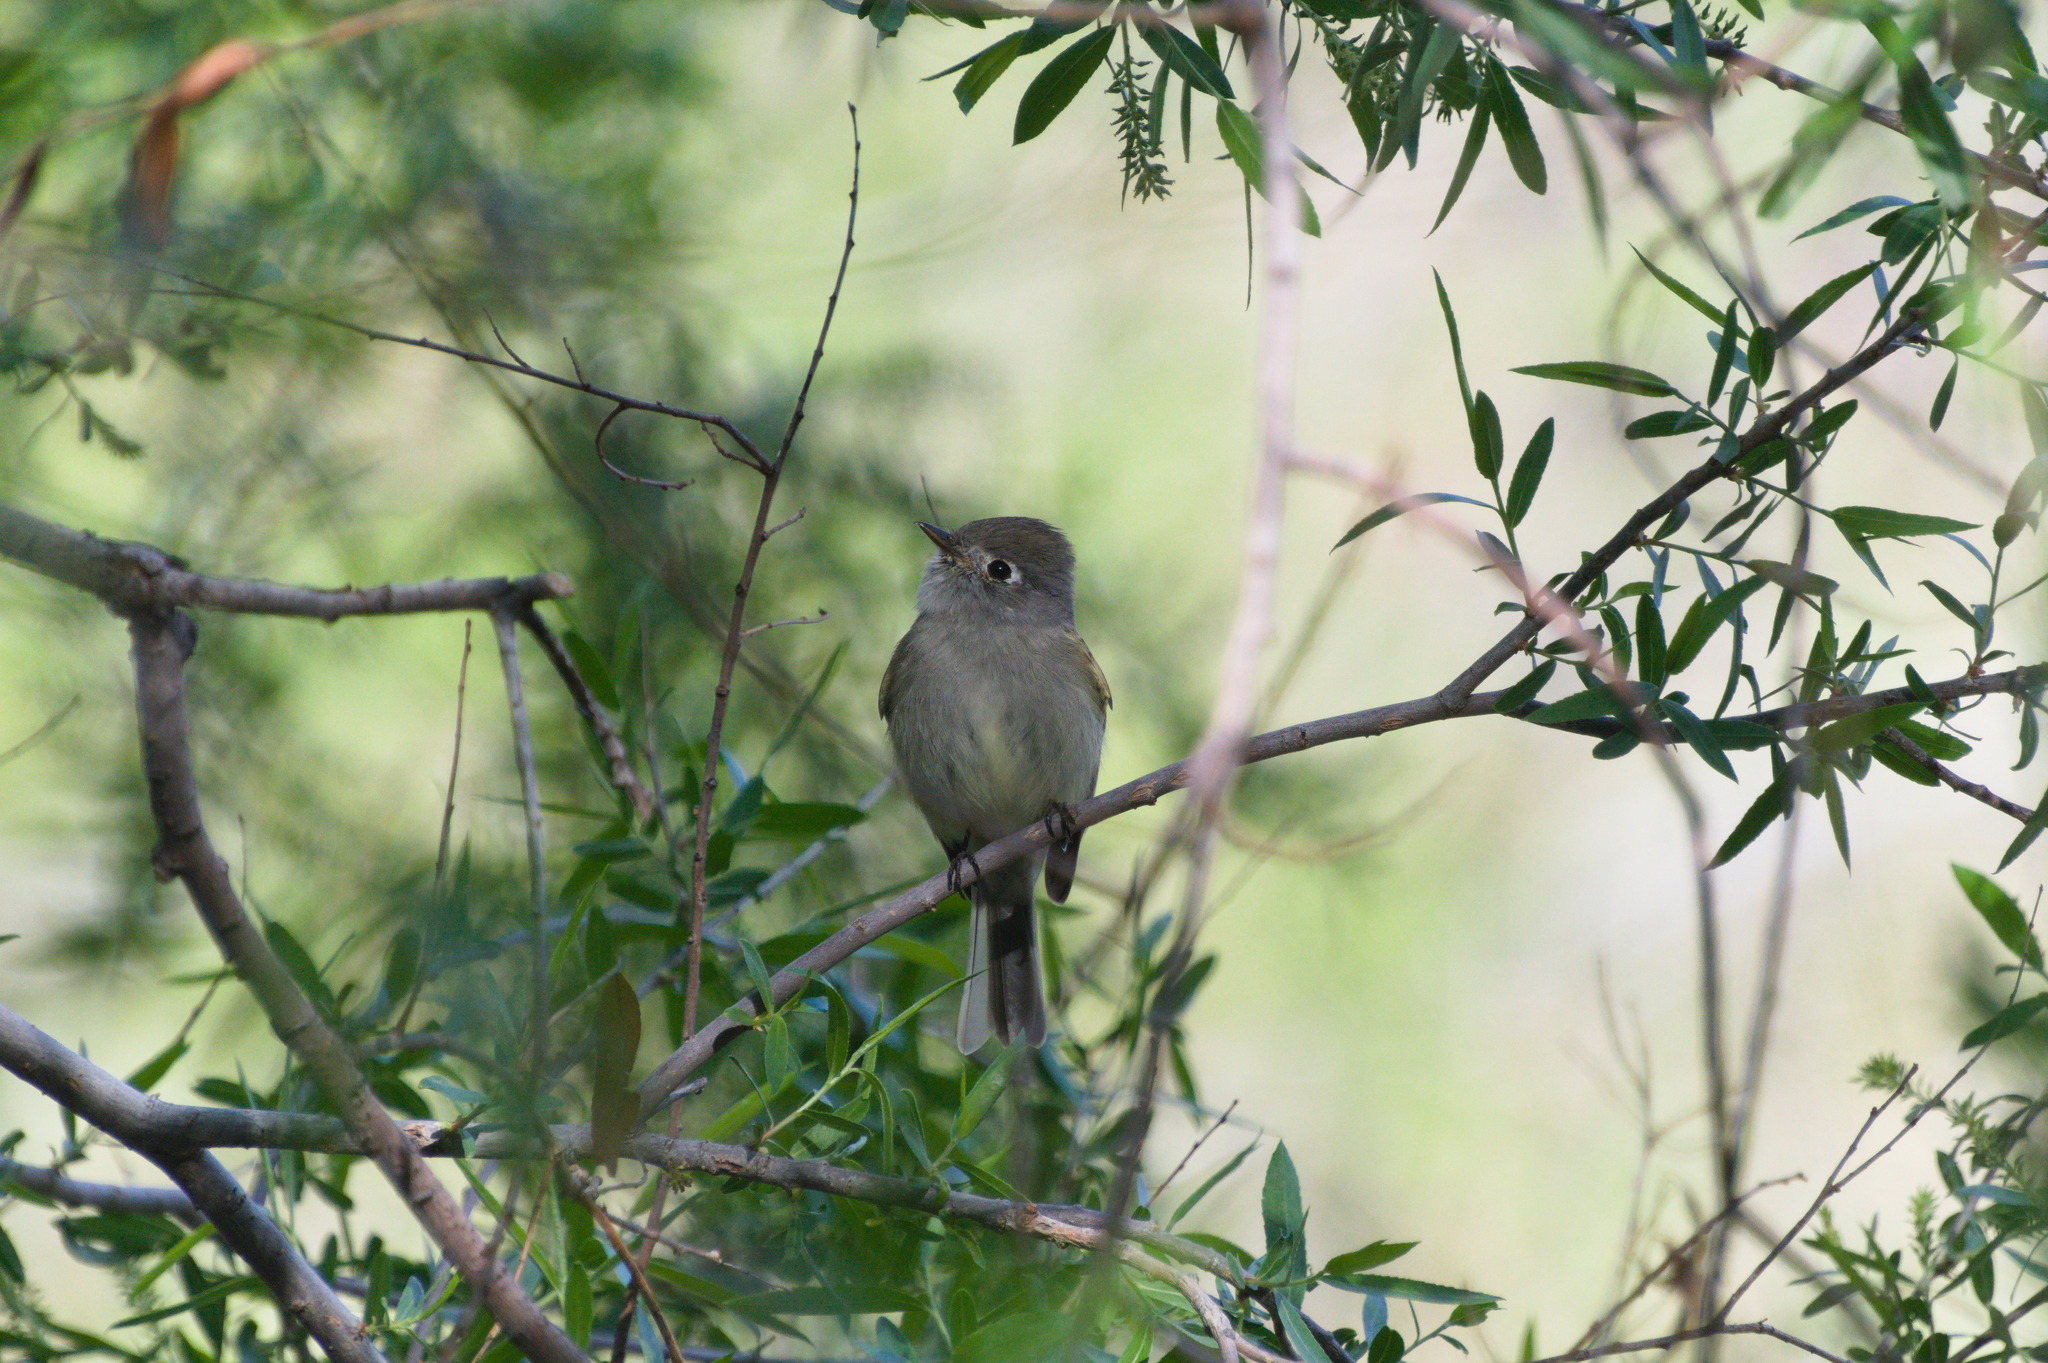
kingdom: Animalia
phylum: Chordata
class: Aves
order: Passeriformes
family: Tyrannidae
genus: Empidonax
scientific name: Empidonax hammondii
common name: Hammond's flycatcher
